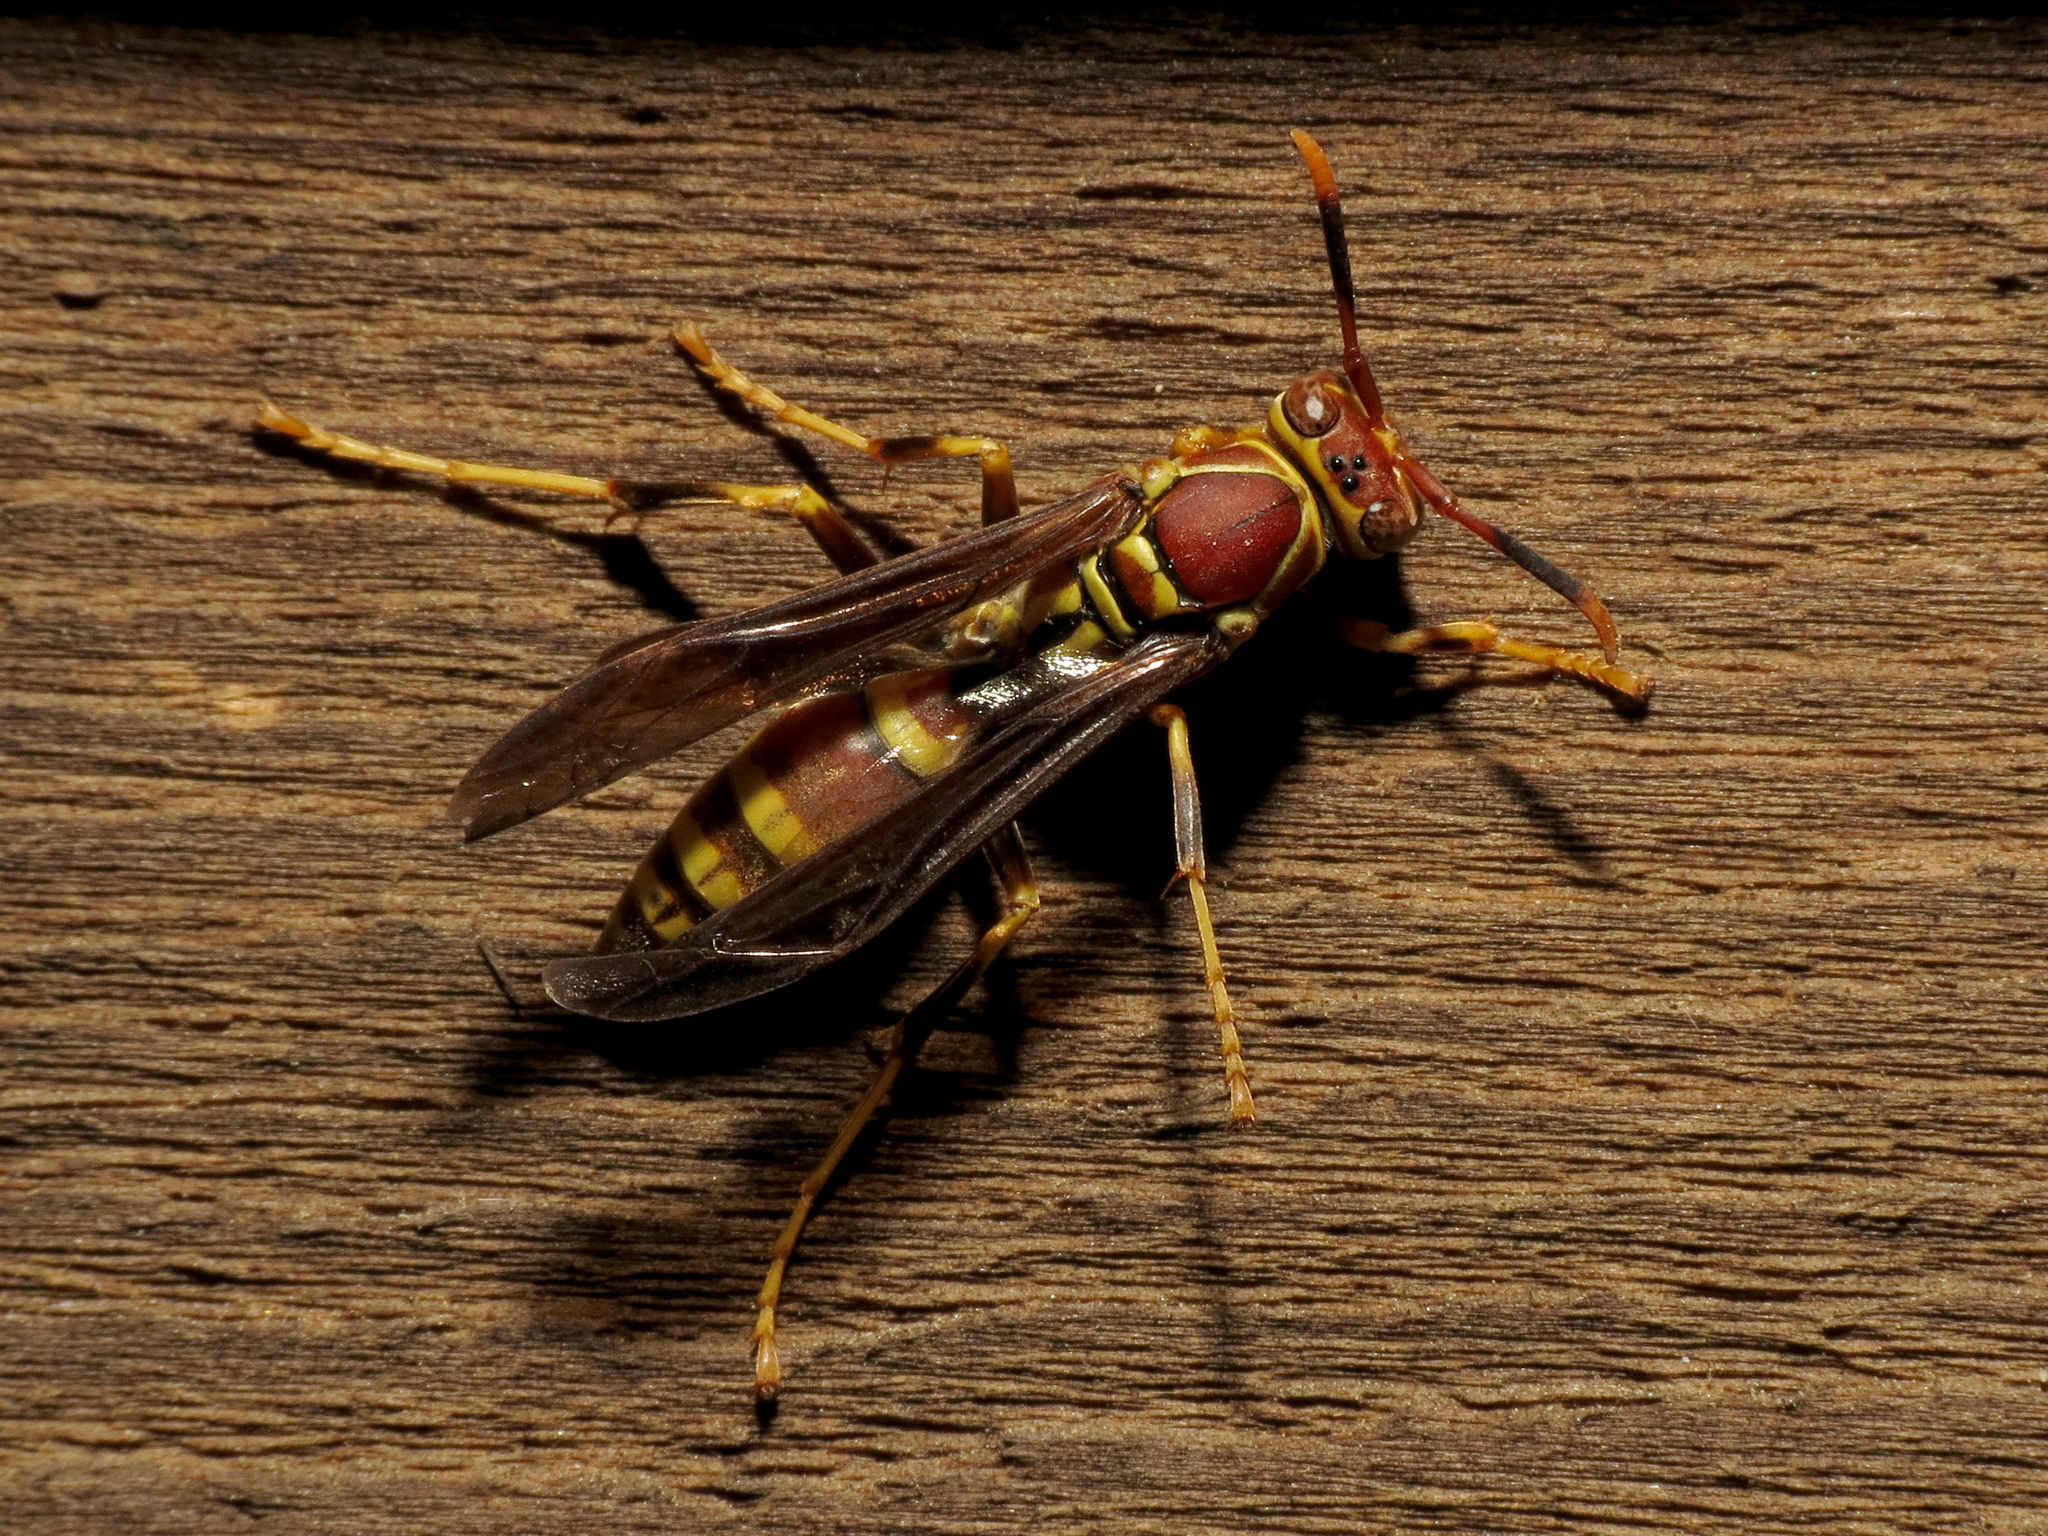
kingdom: Animalia
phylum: Arthropoda
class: Insecta
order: Hymenoptera
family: Eumenidae
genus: Polistes
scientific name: Polistes exclamans
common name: Paper wasp
